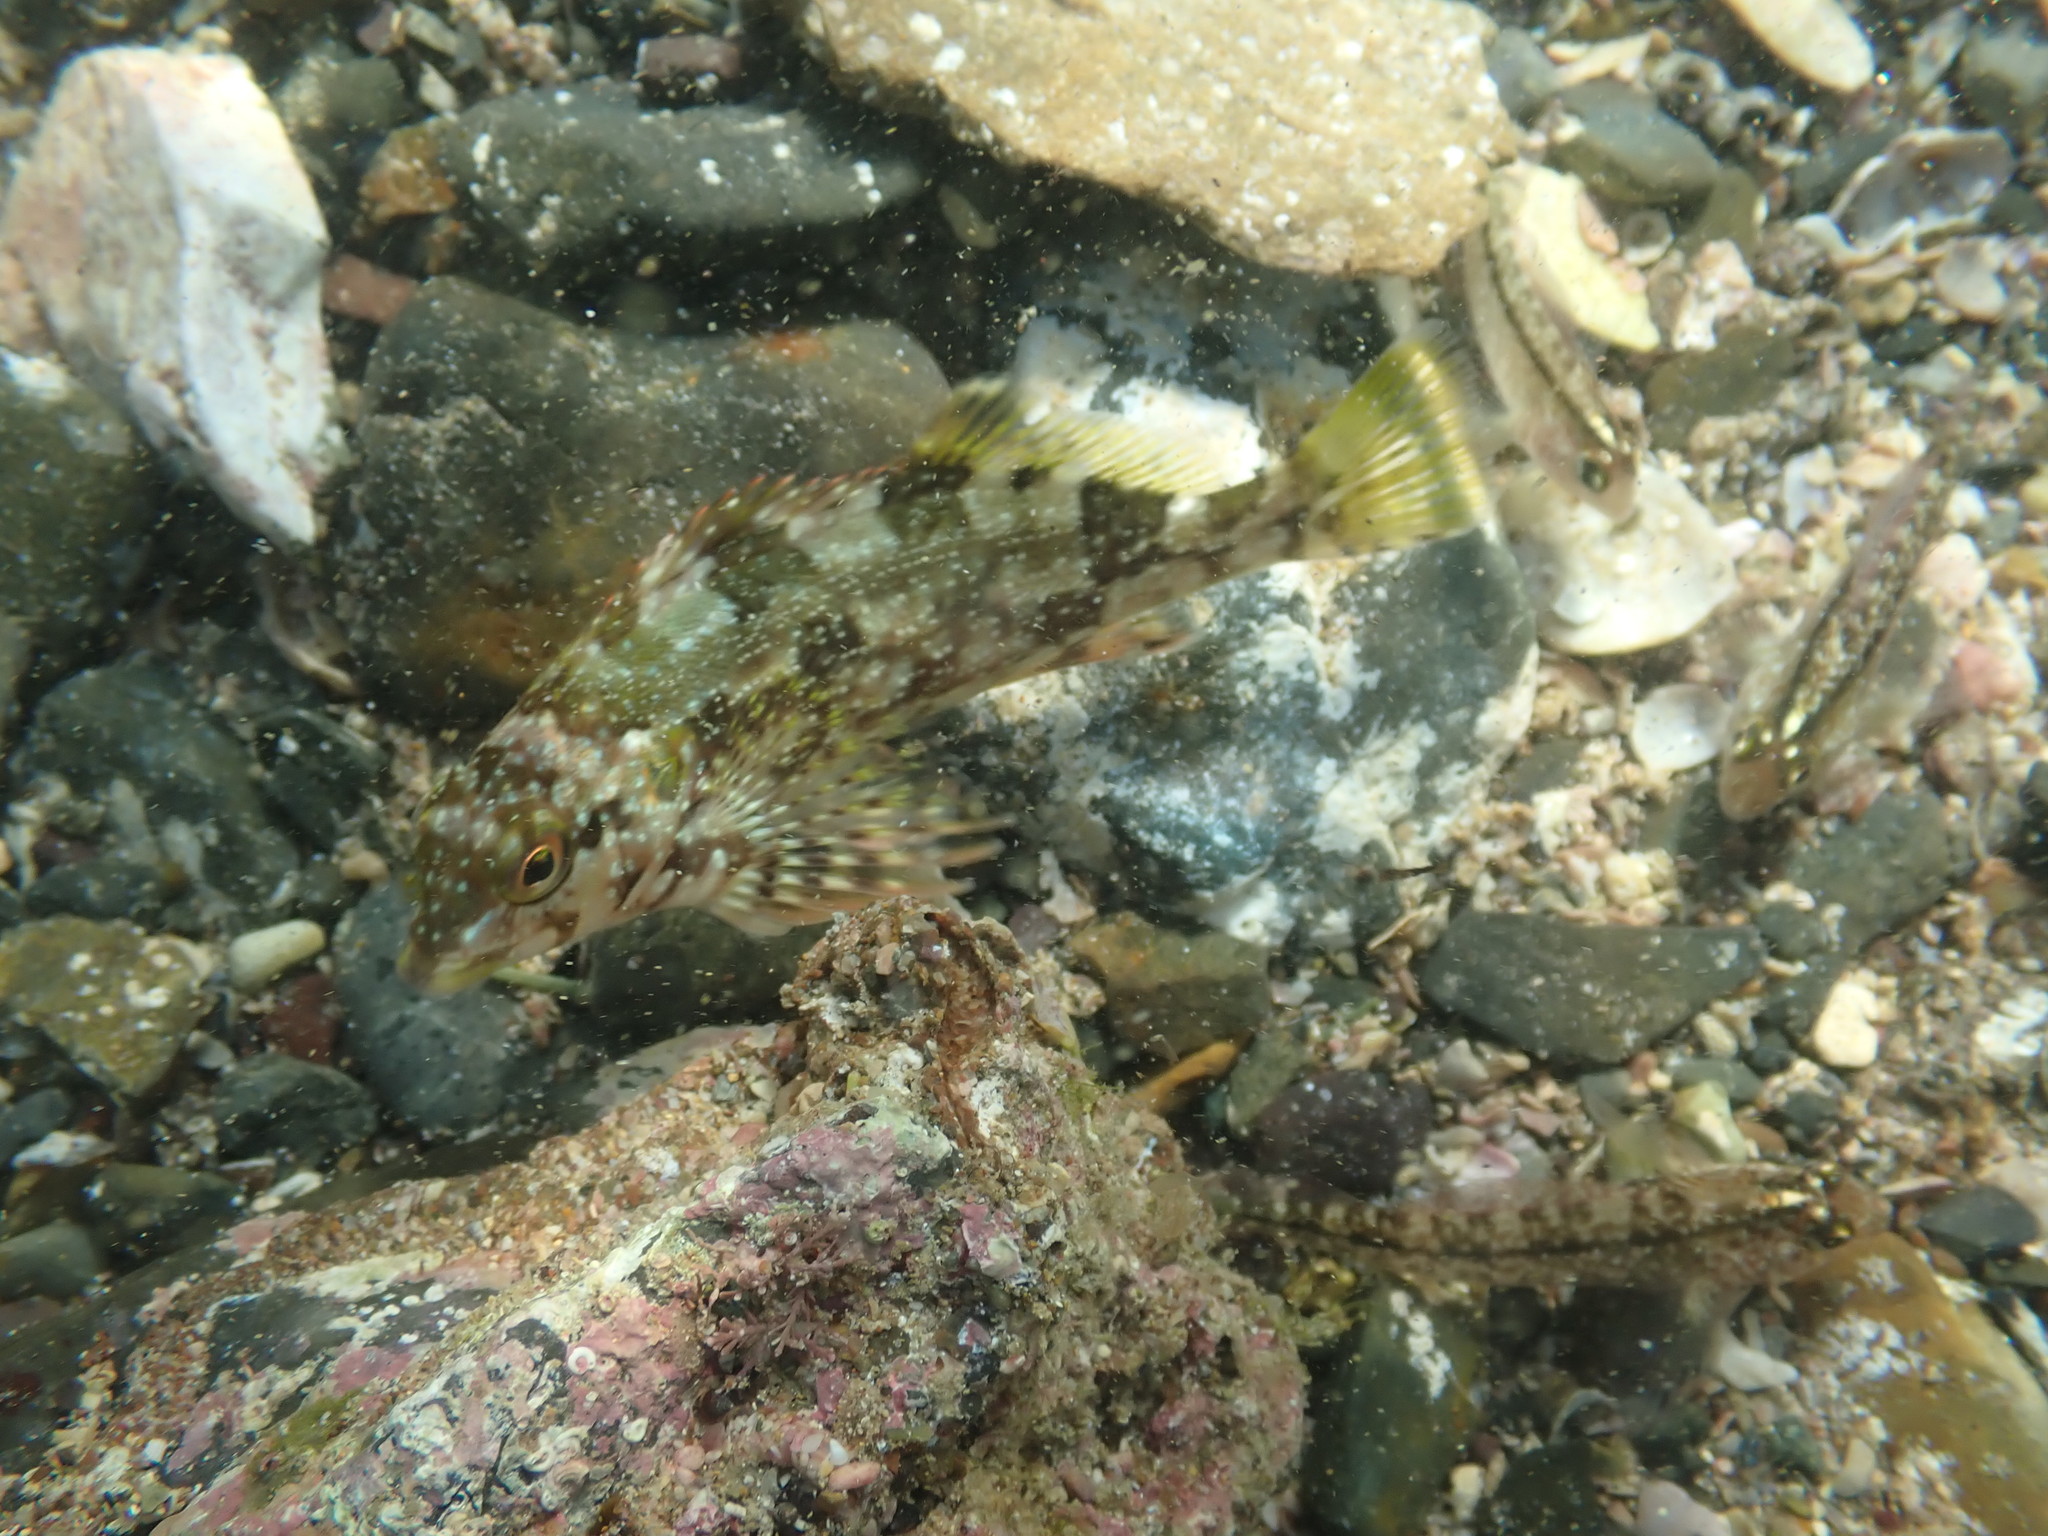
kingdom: Animalia
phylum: Chordata
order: Perciformes
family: Chironemidae
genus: Chironemus
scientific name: Chironemus marmoratus
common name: Kelpfish
